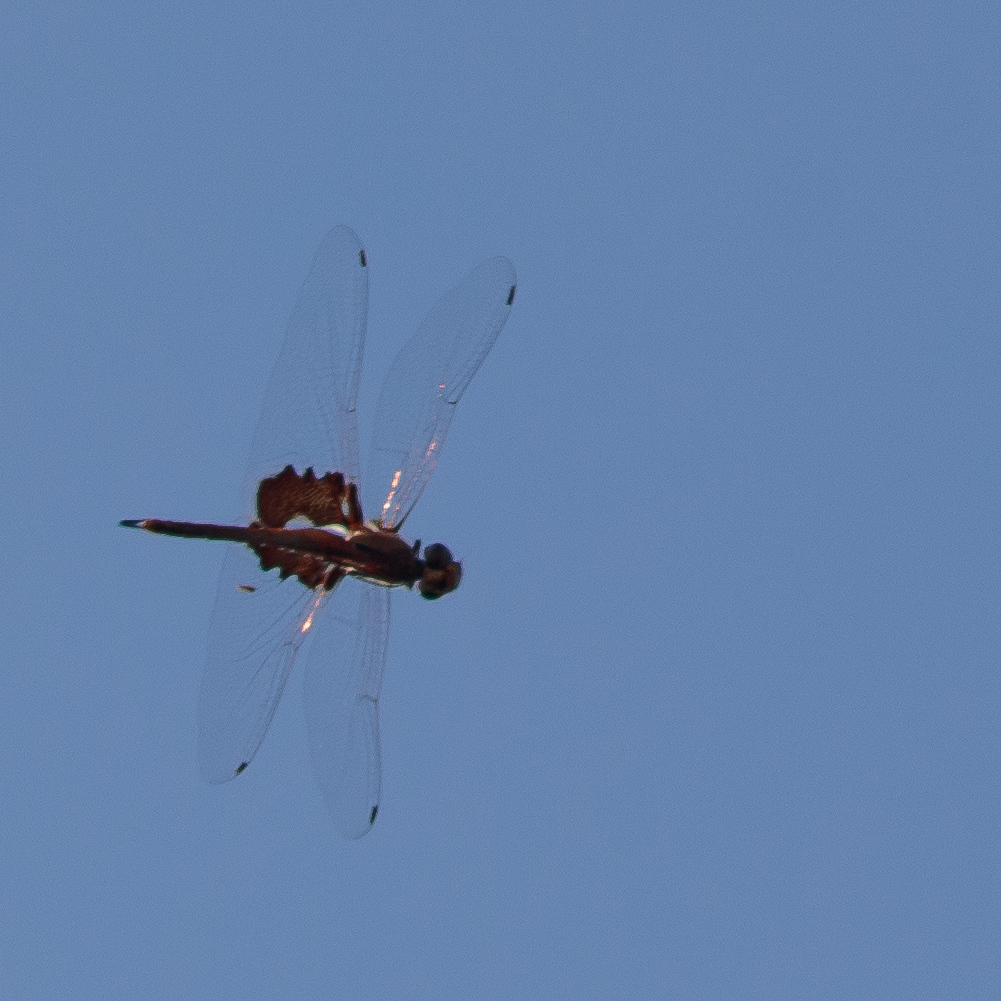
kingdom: Animalia
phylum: Arthropoda
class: Insecta
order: Odonata
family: Libellulidae
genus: Tramea
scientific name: Tramea onusta
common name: Red saddlebags
